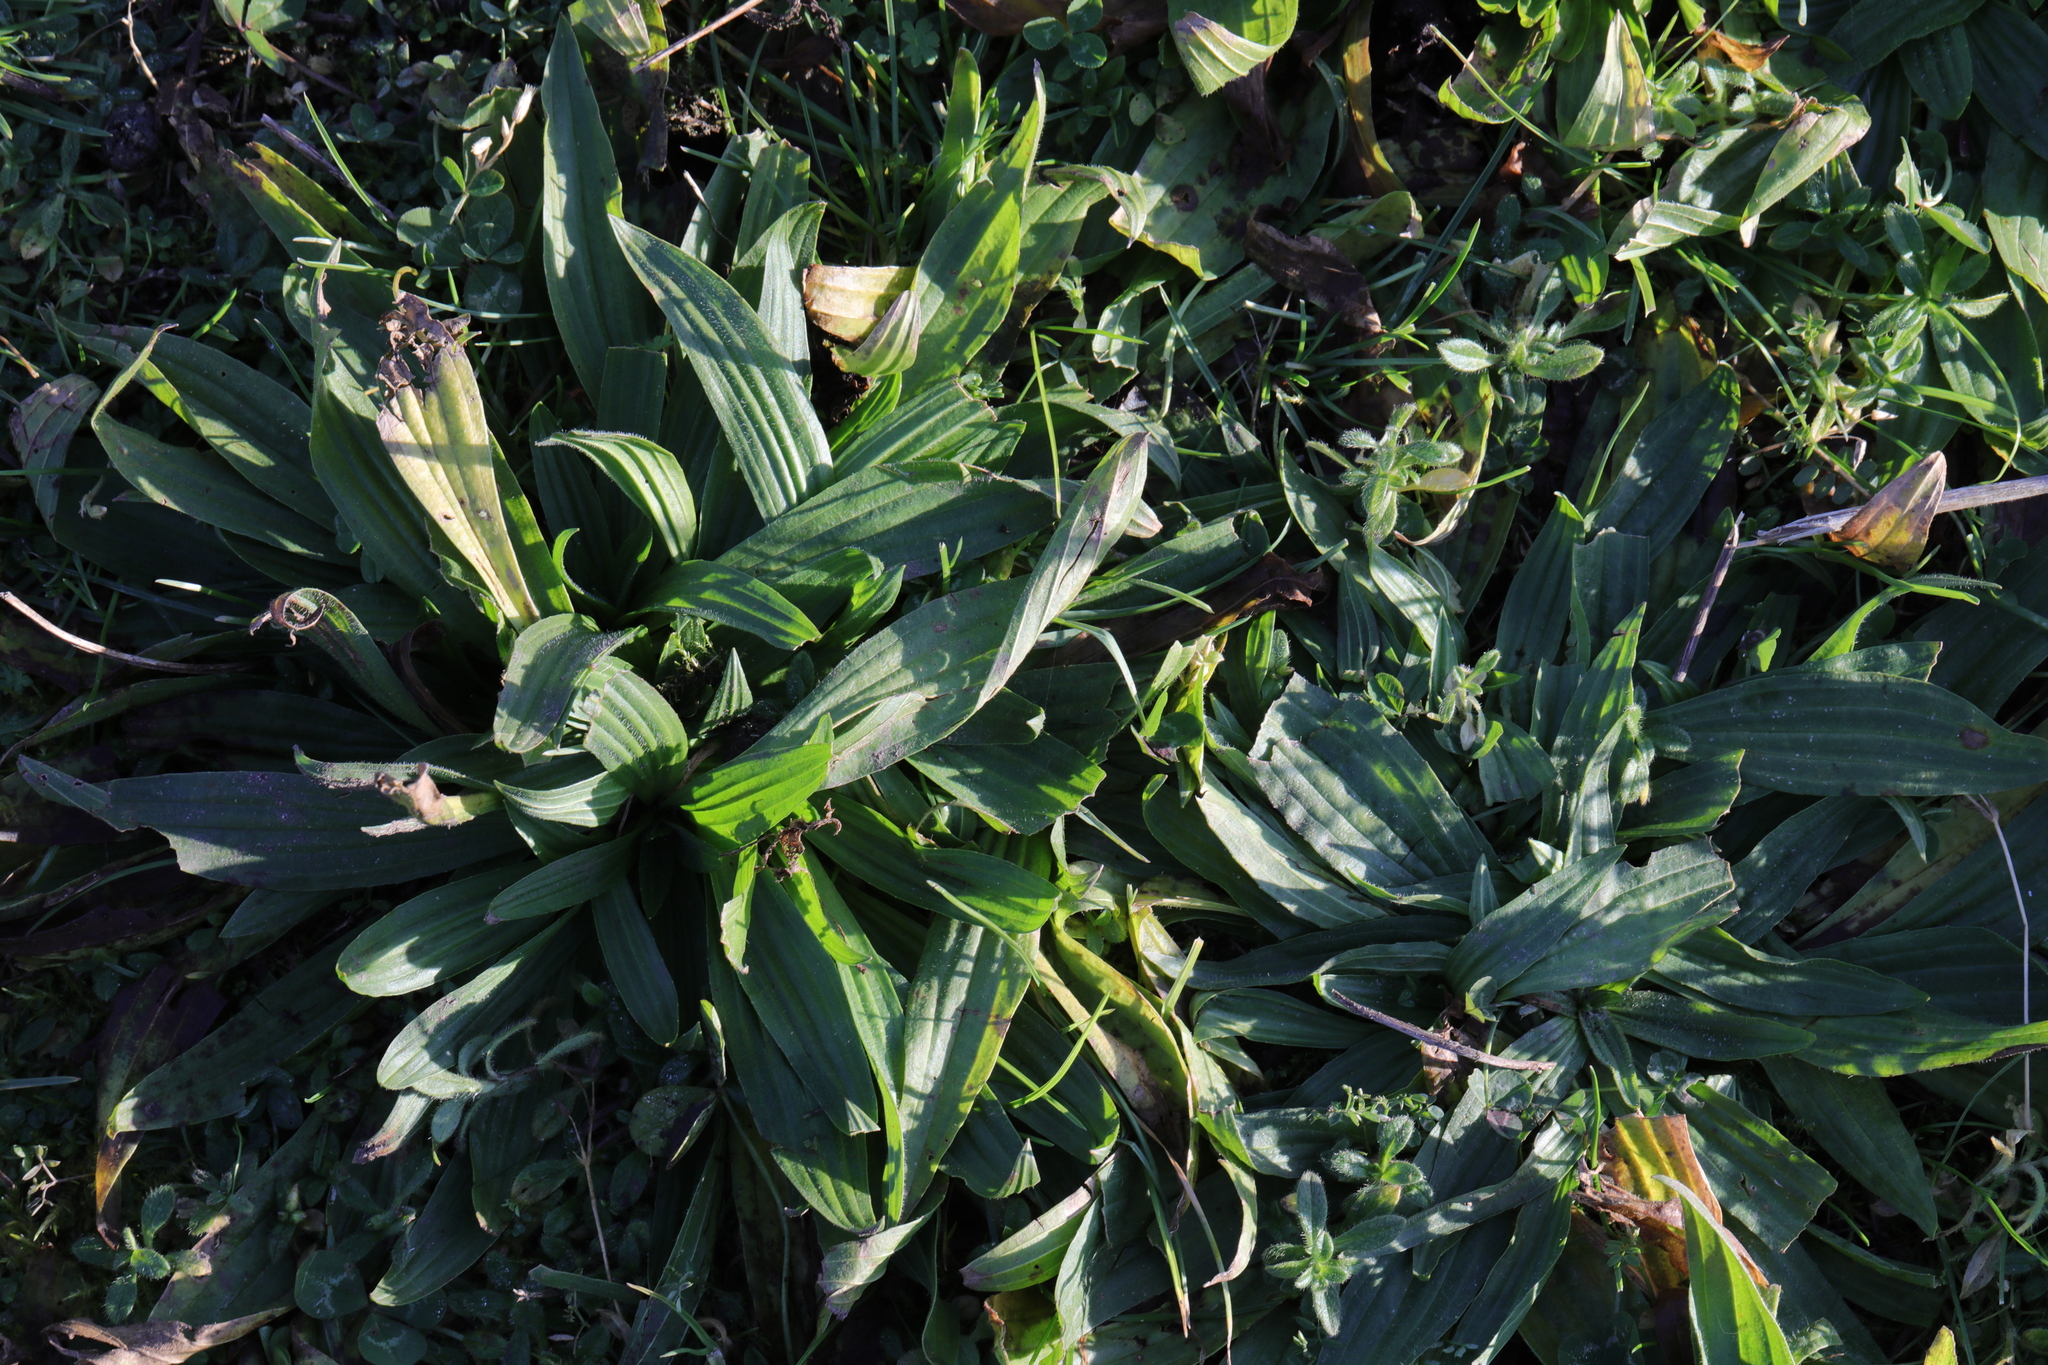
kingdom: Plantae
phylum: Tracheophyta
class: Magnoliopsida
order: Lamiales
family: Plantaginaceae
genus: Plantago
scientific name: Plantago lanceolata
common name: Ribwort plantain
